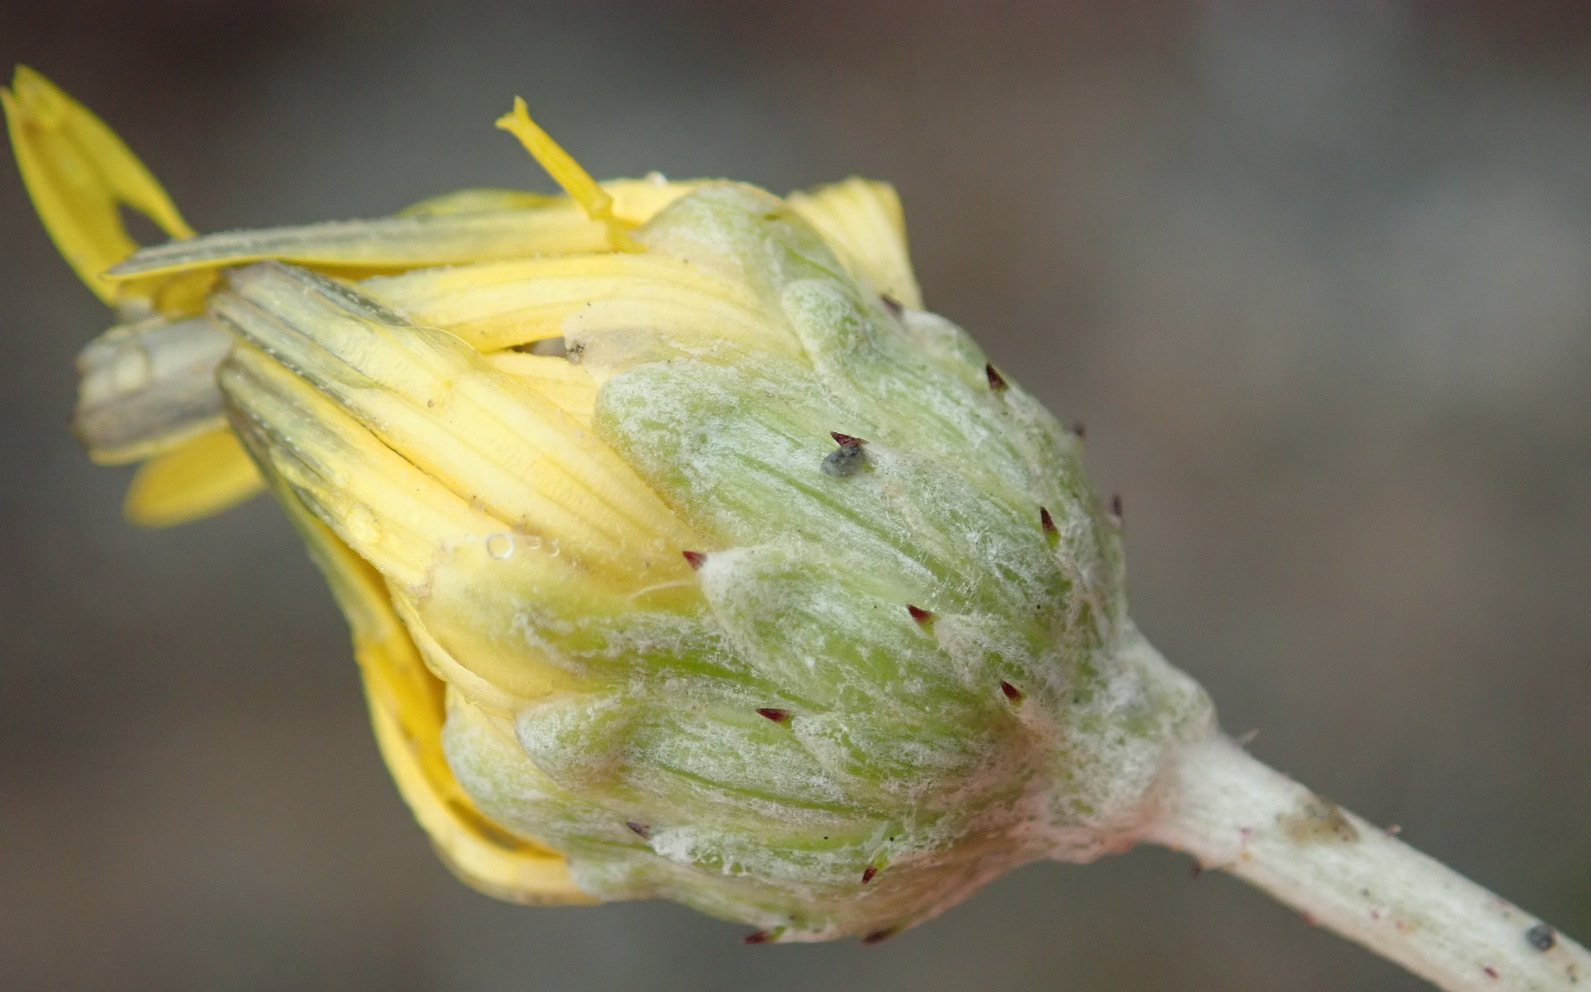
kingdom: Plantae
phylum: Tracheophyta
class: Magnoliopsida
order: Asterales
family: Asteraceae
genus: Arctotheca
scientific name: Arctotheca prostrata
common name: Capeweed
